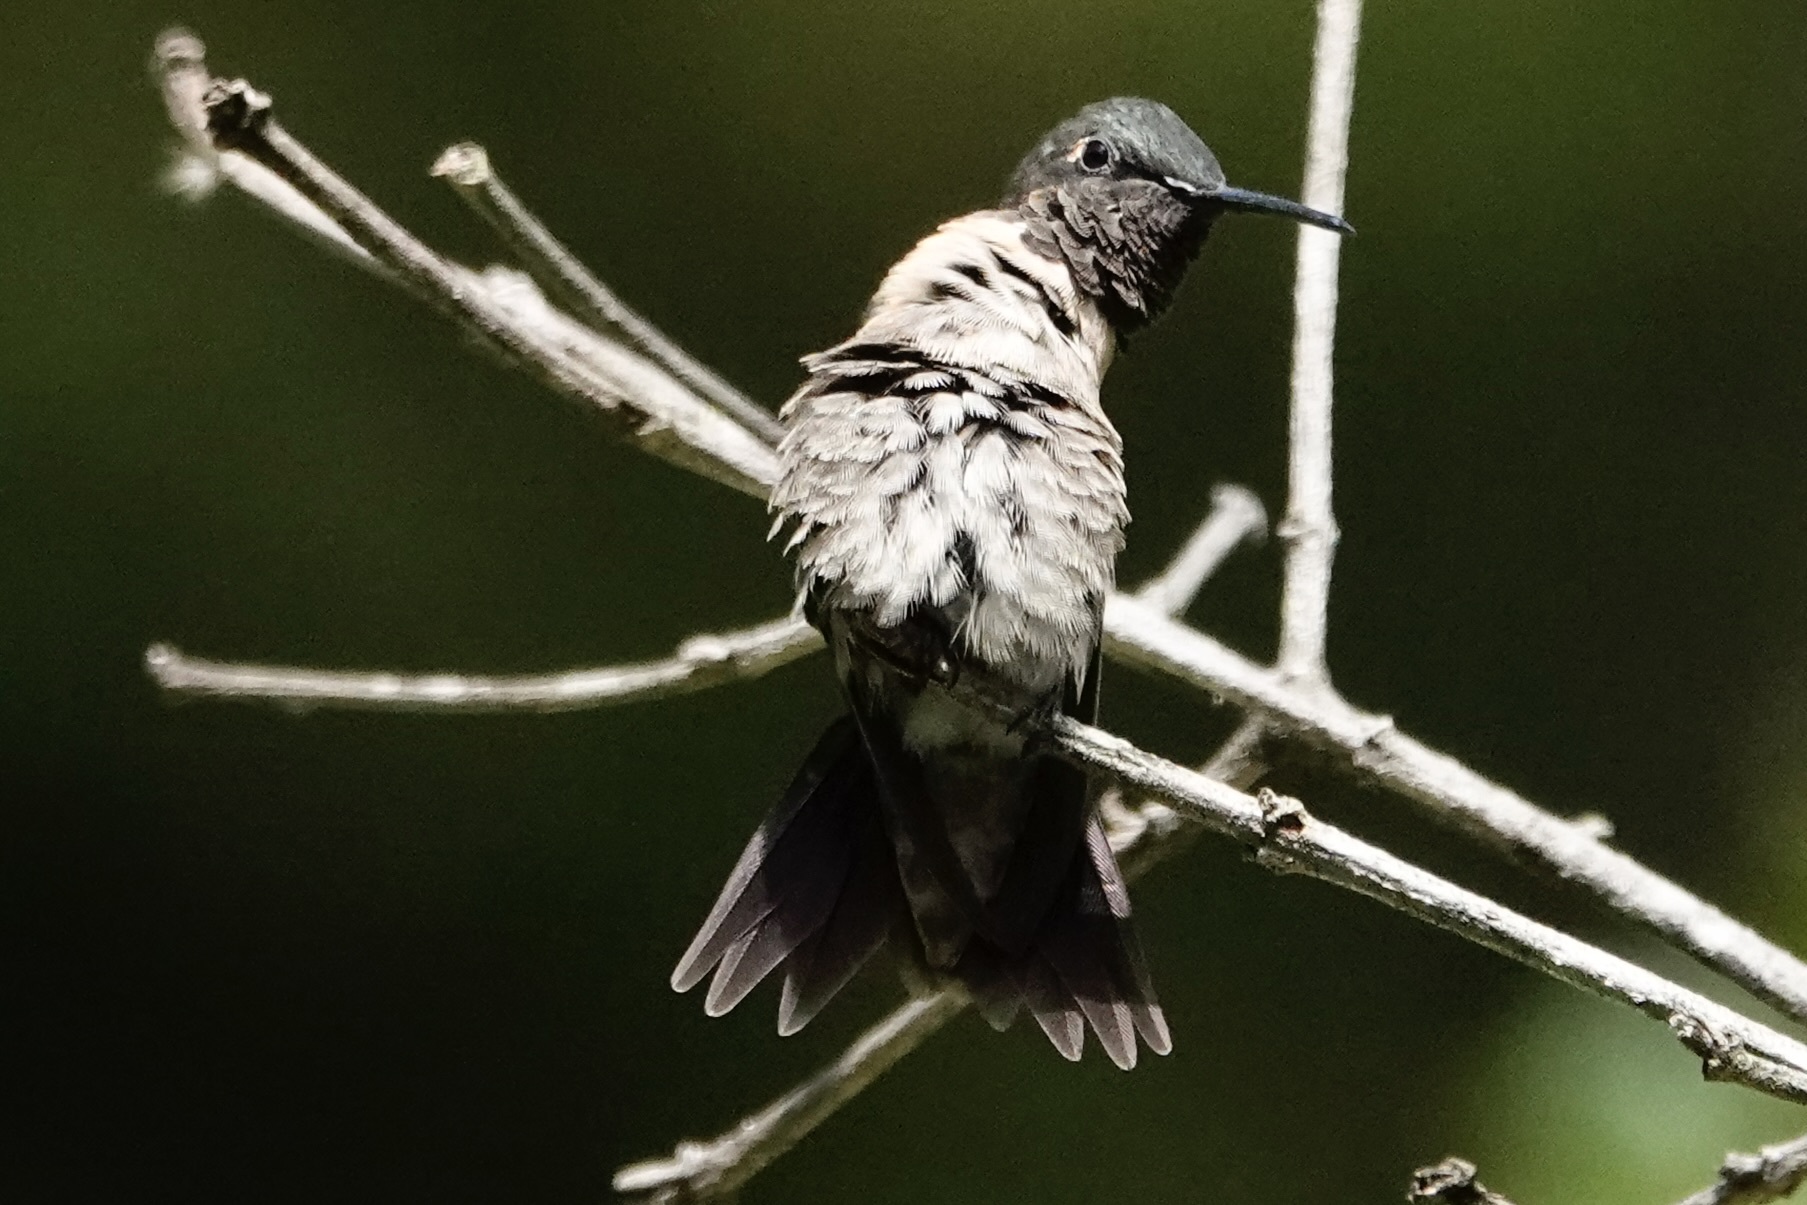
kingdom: Animalia
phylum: Chordata
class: Aves
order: Apodiformes
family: Trochilidae
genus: Archilochus
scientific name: Archilochus colubris
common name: Ruby-throated hummingbird
